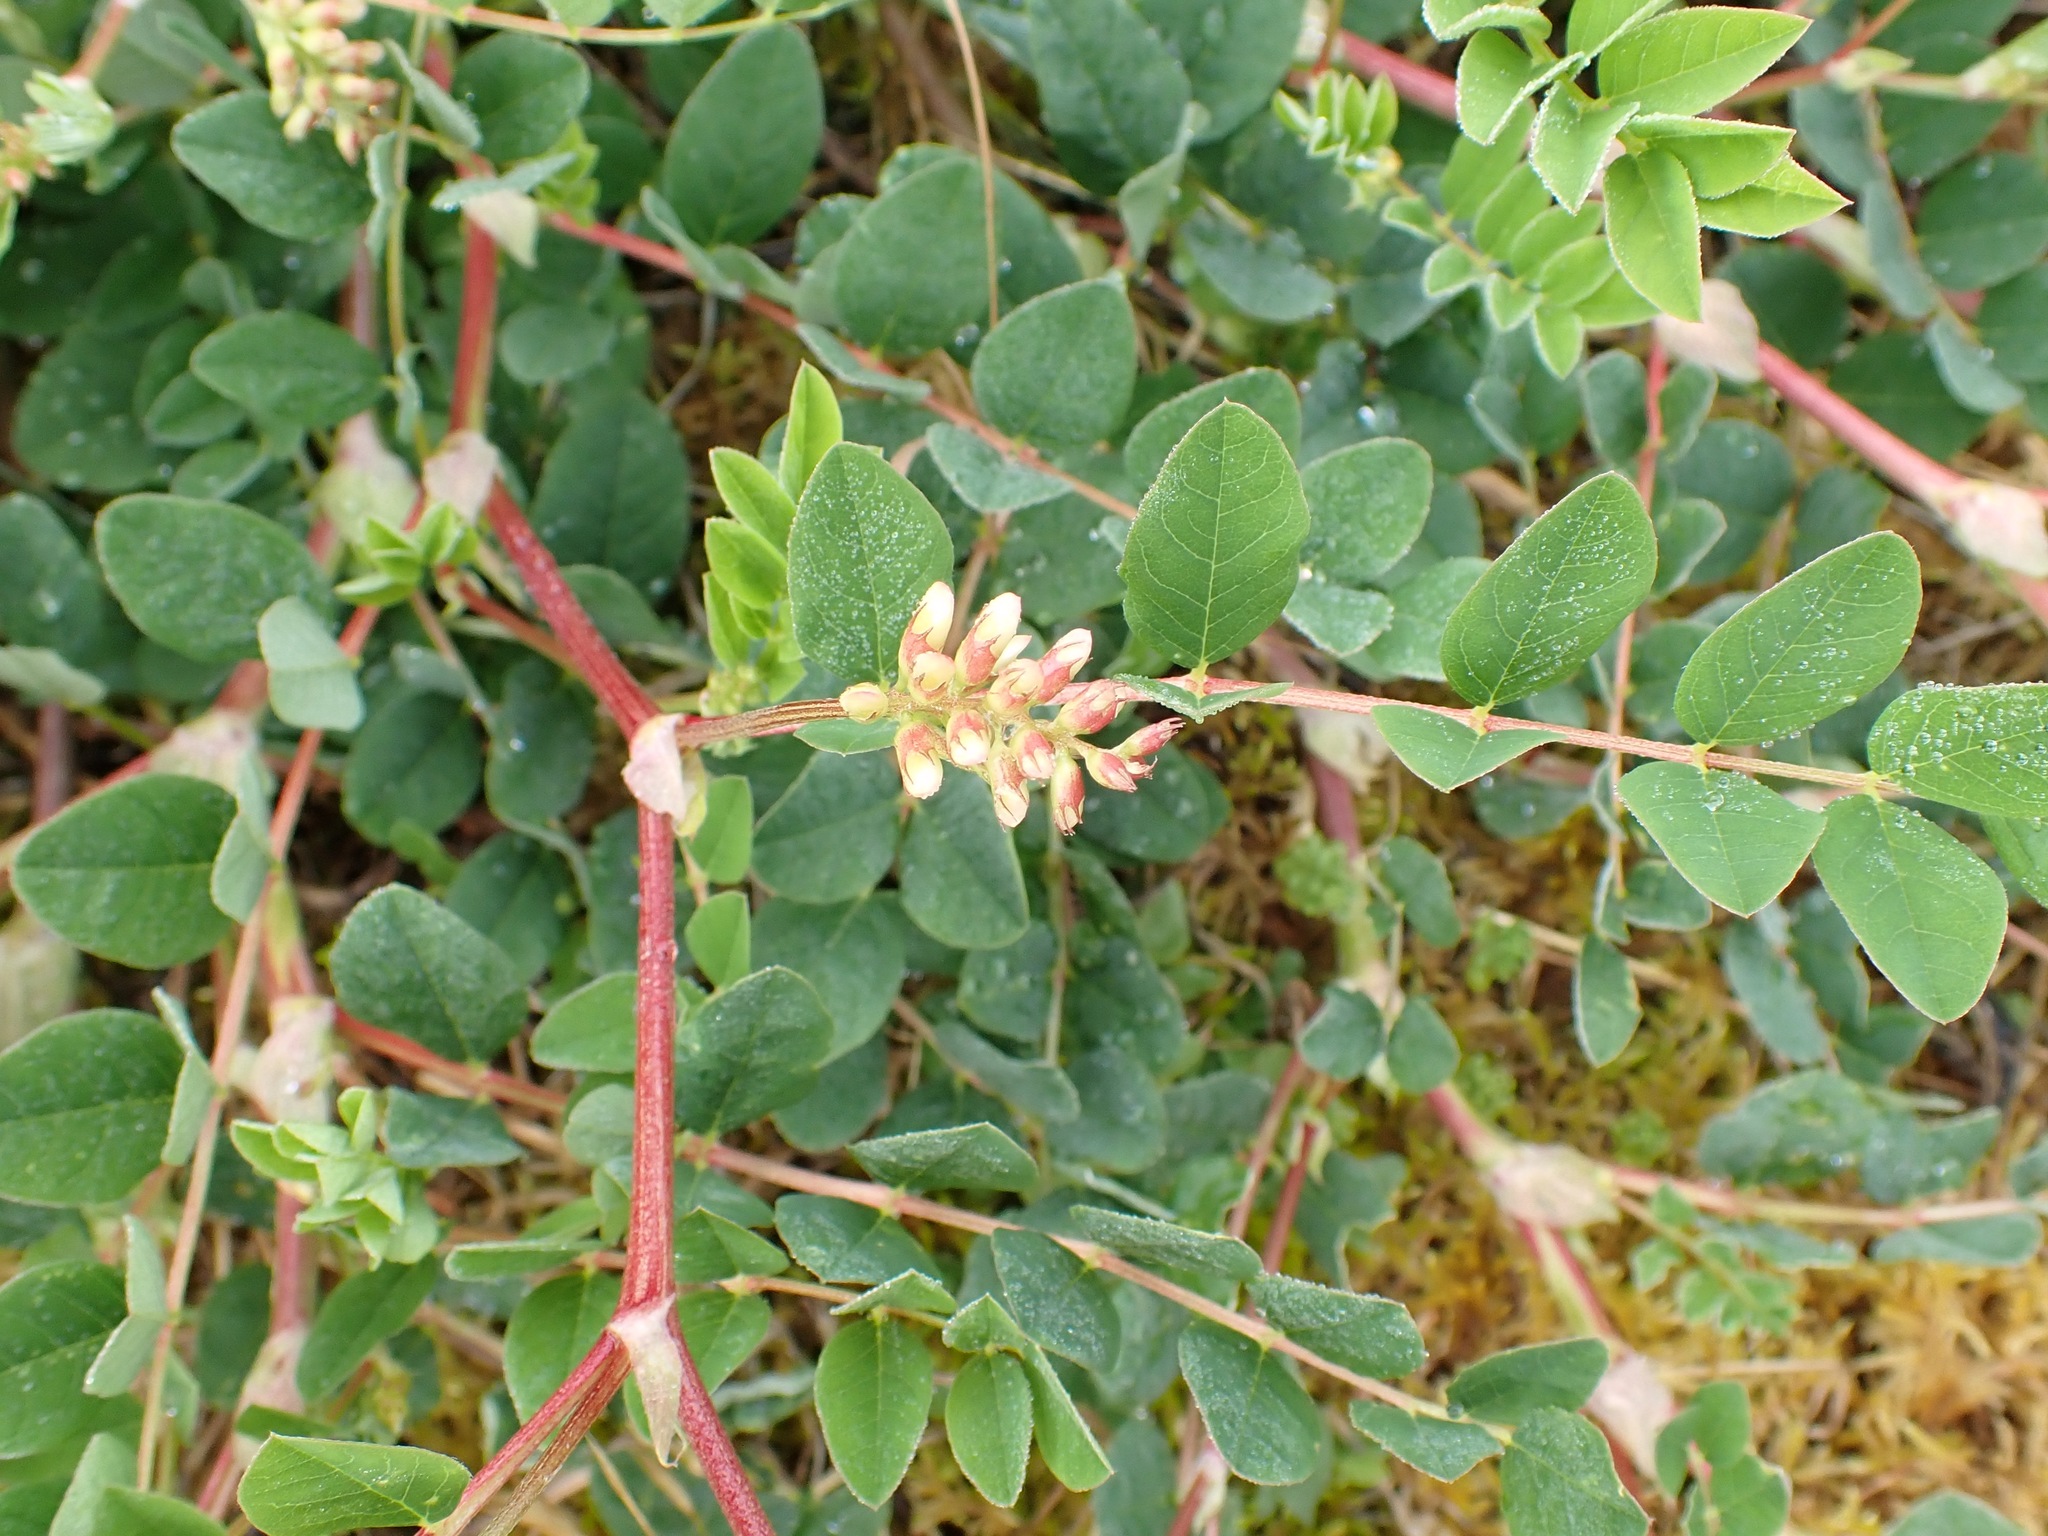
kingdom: Plantae
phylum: Tracheophyta
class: Magnoliopsida
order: Fabales
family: Fabaceae
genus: Astragalus
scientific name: Astragalus glycyphyllos
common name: Wild liquorice
